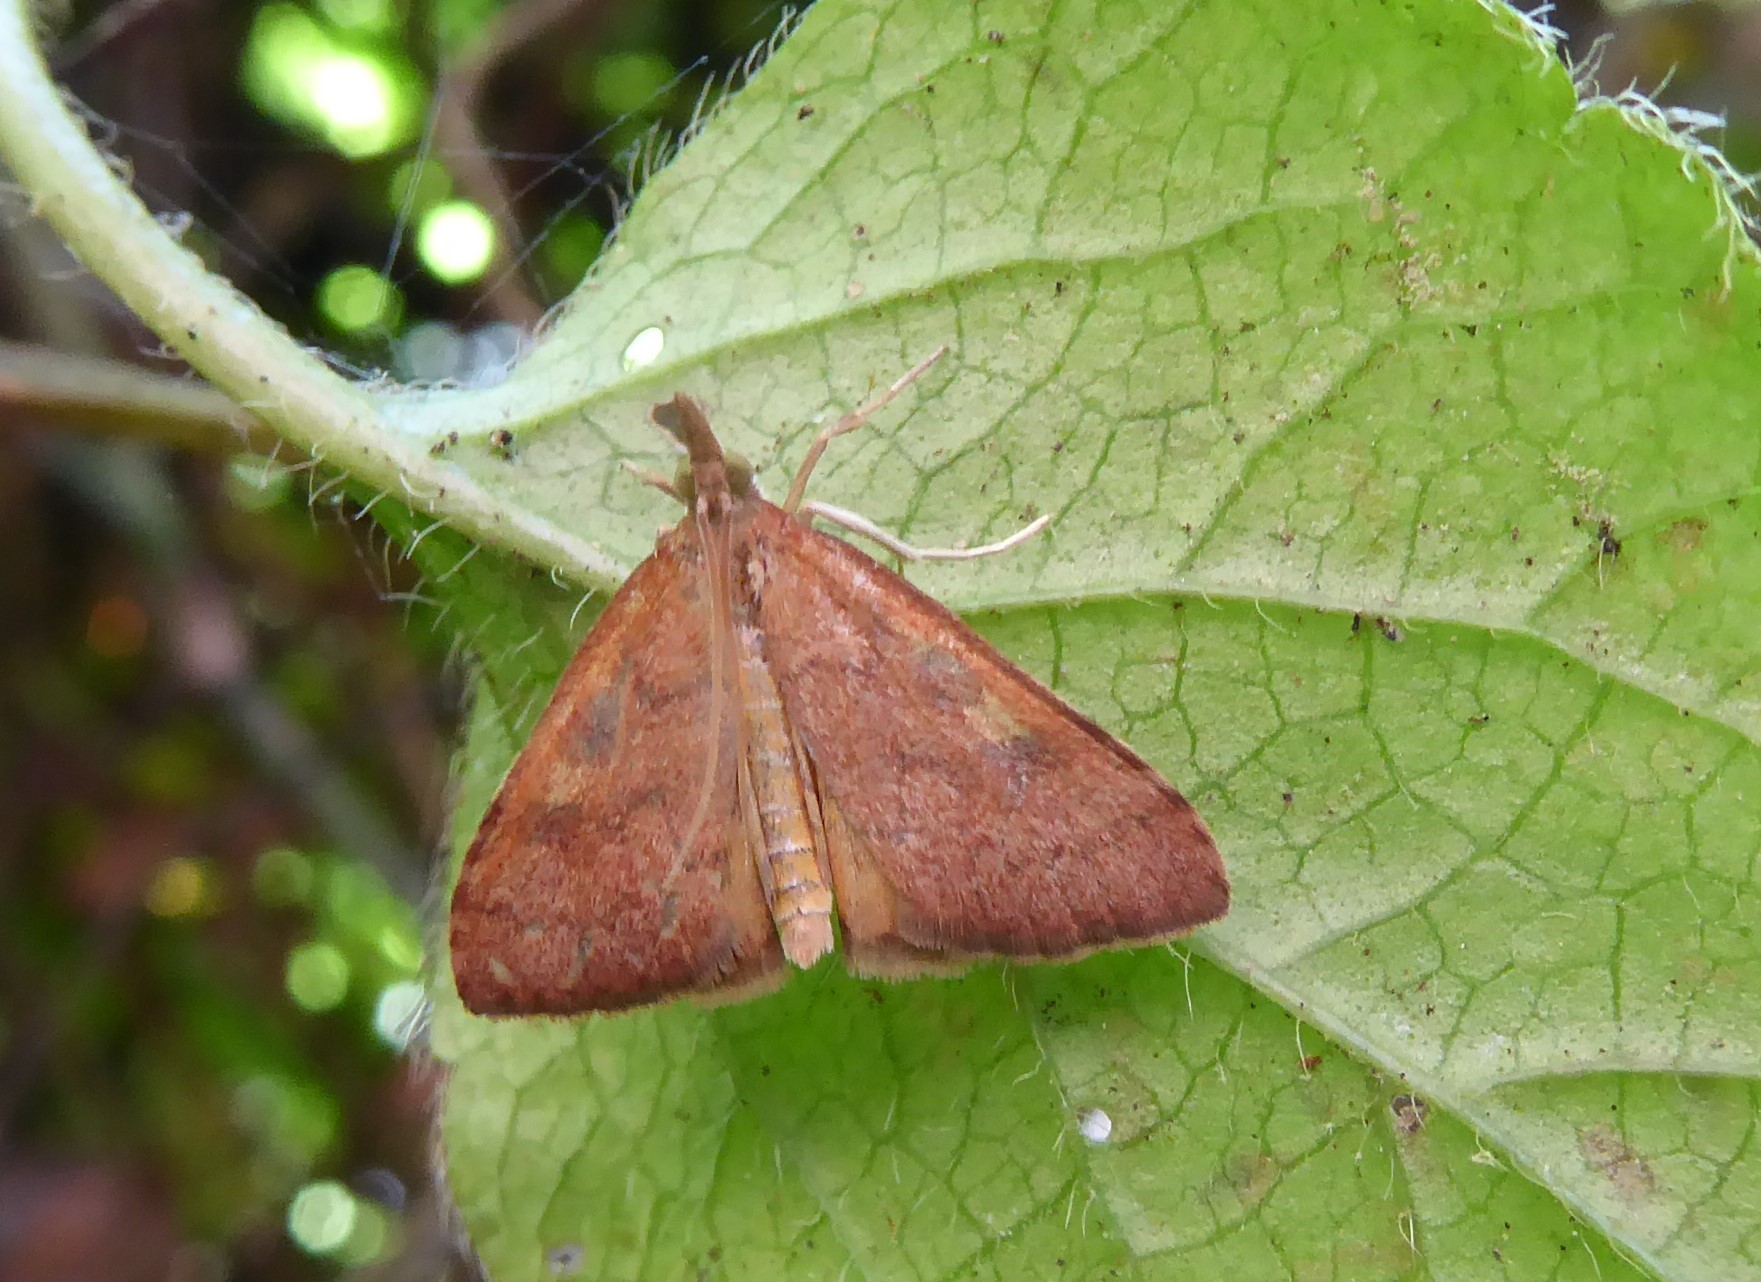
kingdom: Animalia
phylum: Arthropoda
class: Insecta
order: Lepidoptera
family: Crambidae
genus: Udea
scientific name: Udea Mnesictena flavidalis
